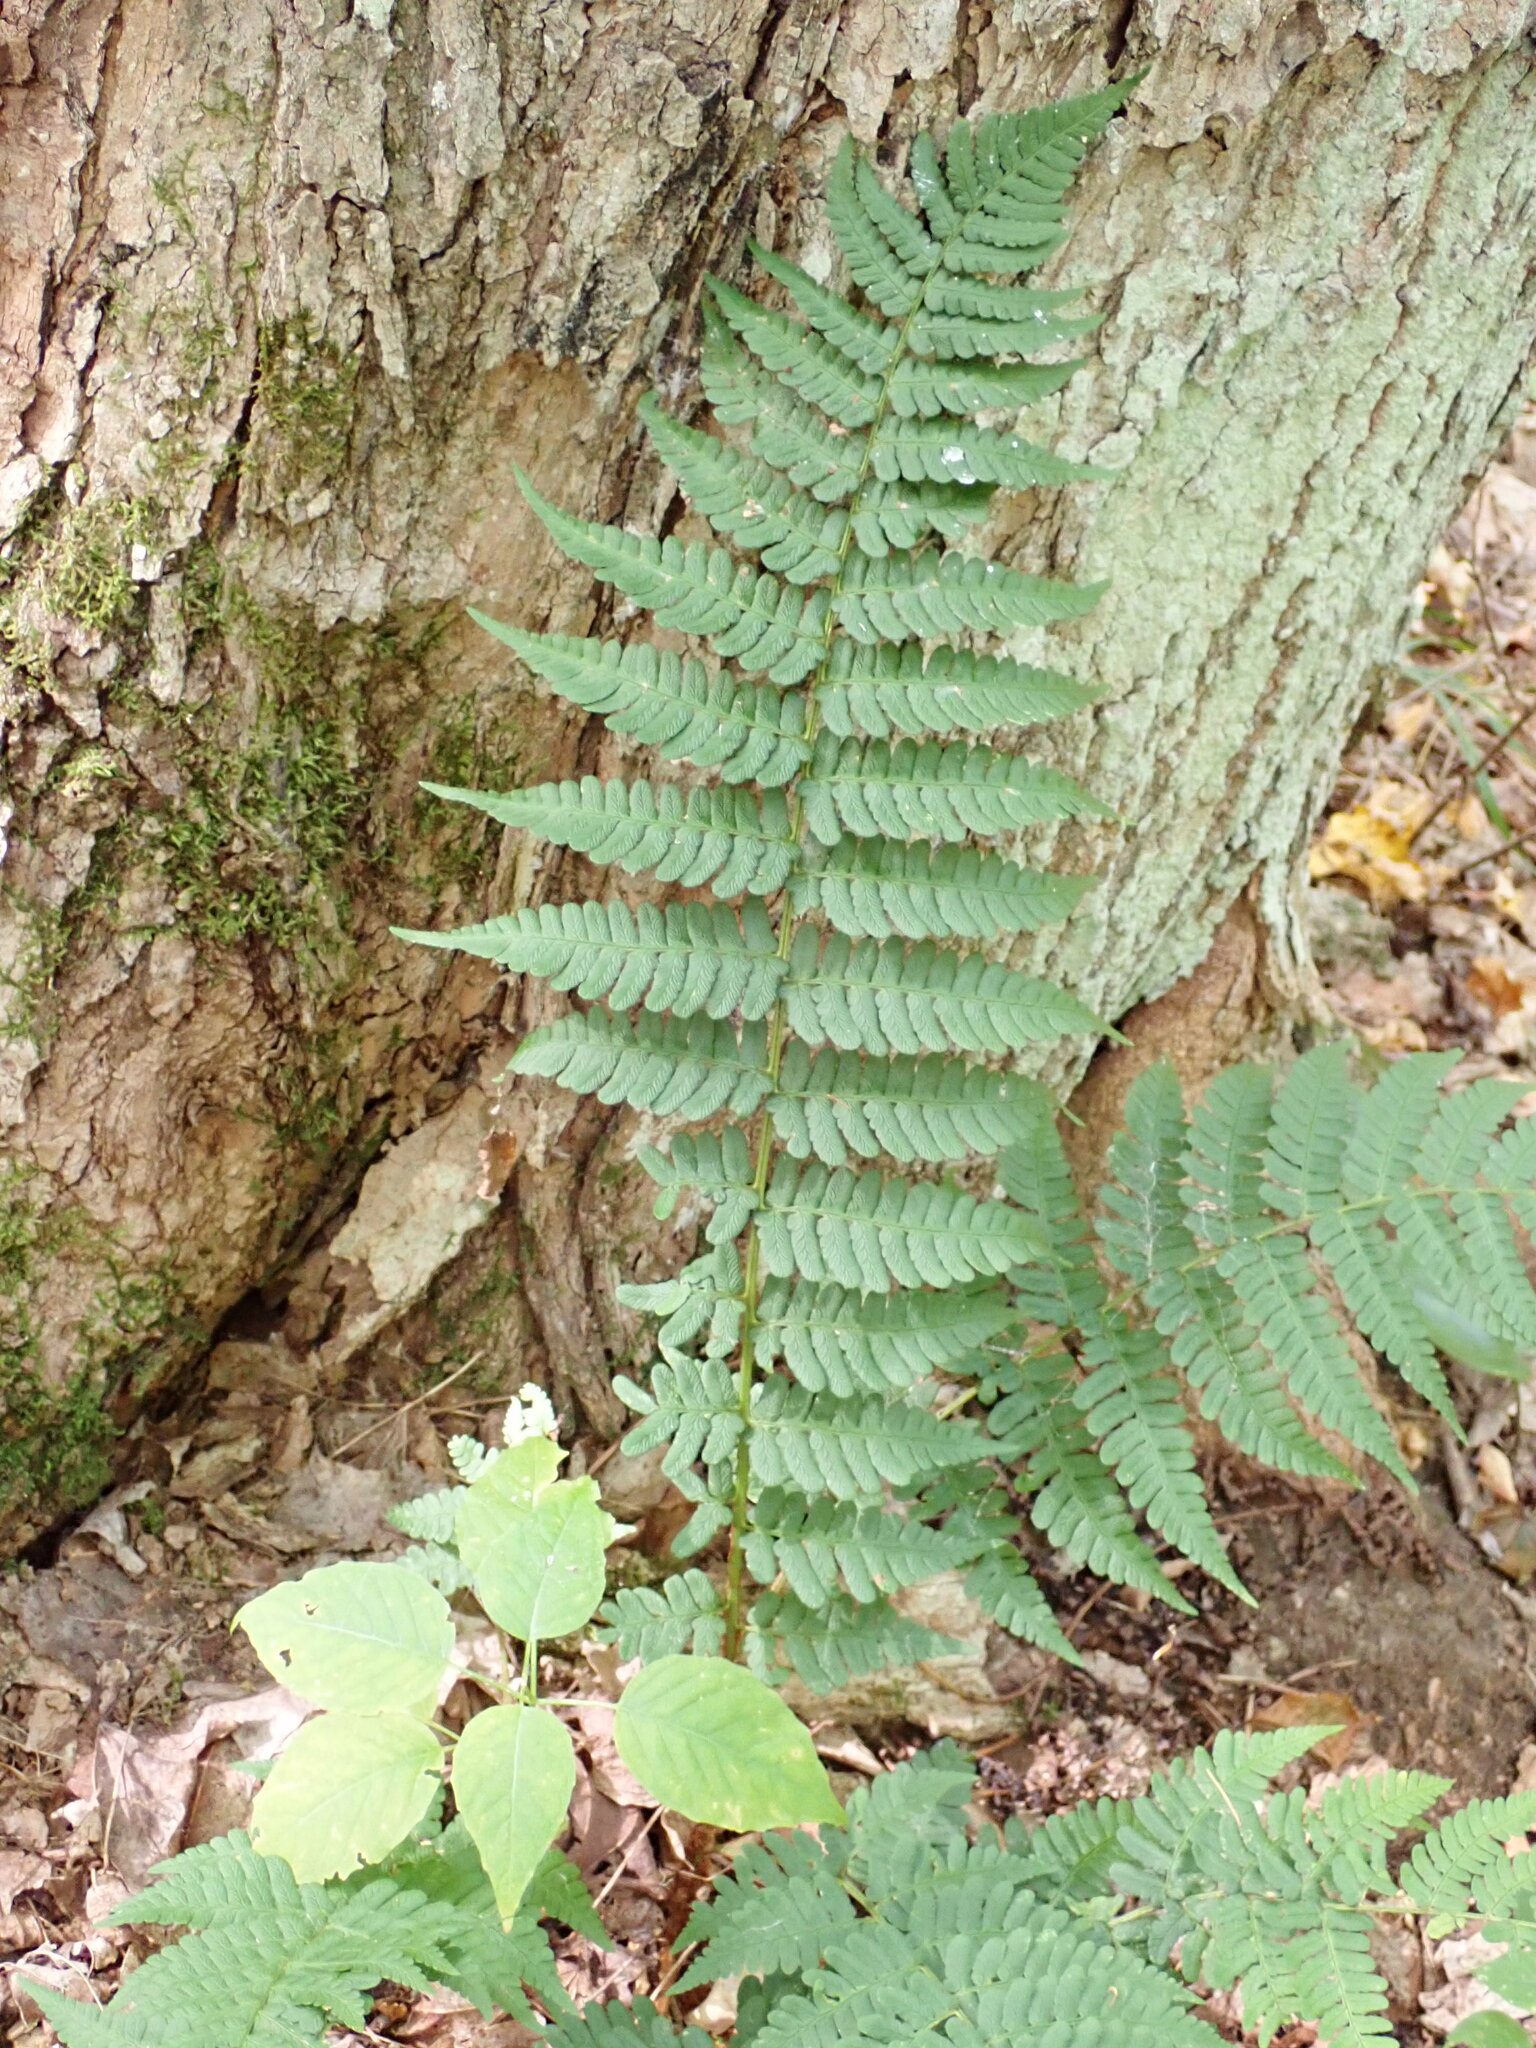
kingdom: Plantae
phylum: Tracheophyta
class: Polypodiopsida
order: Polypodiales
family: Dryopteridaceae
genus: Dryopteris
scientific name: Dryopteris marginalis
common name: Marginal wood fern
